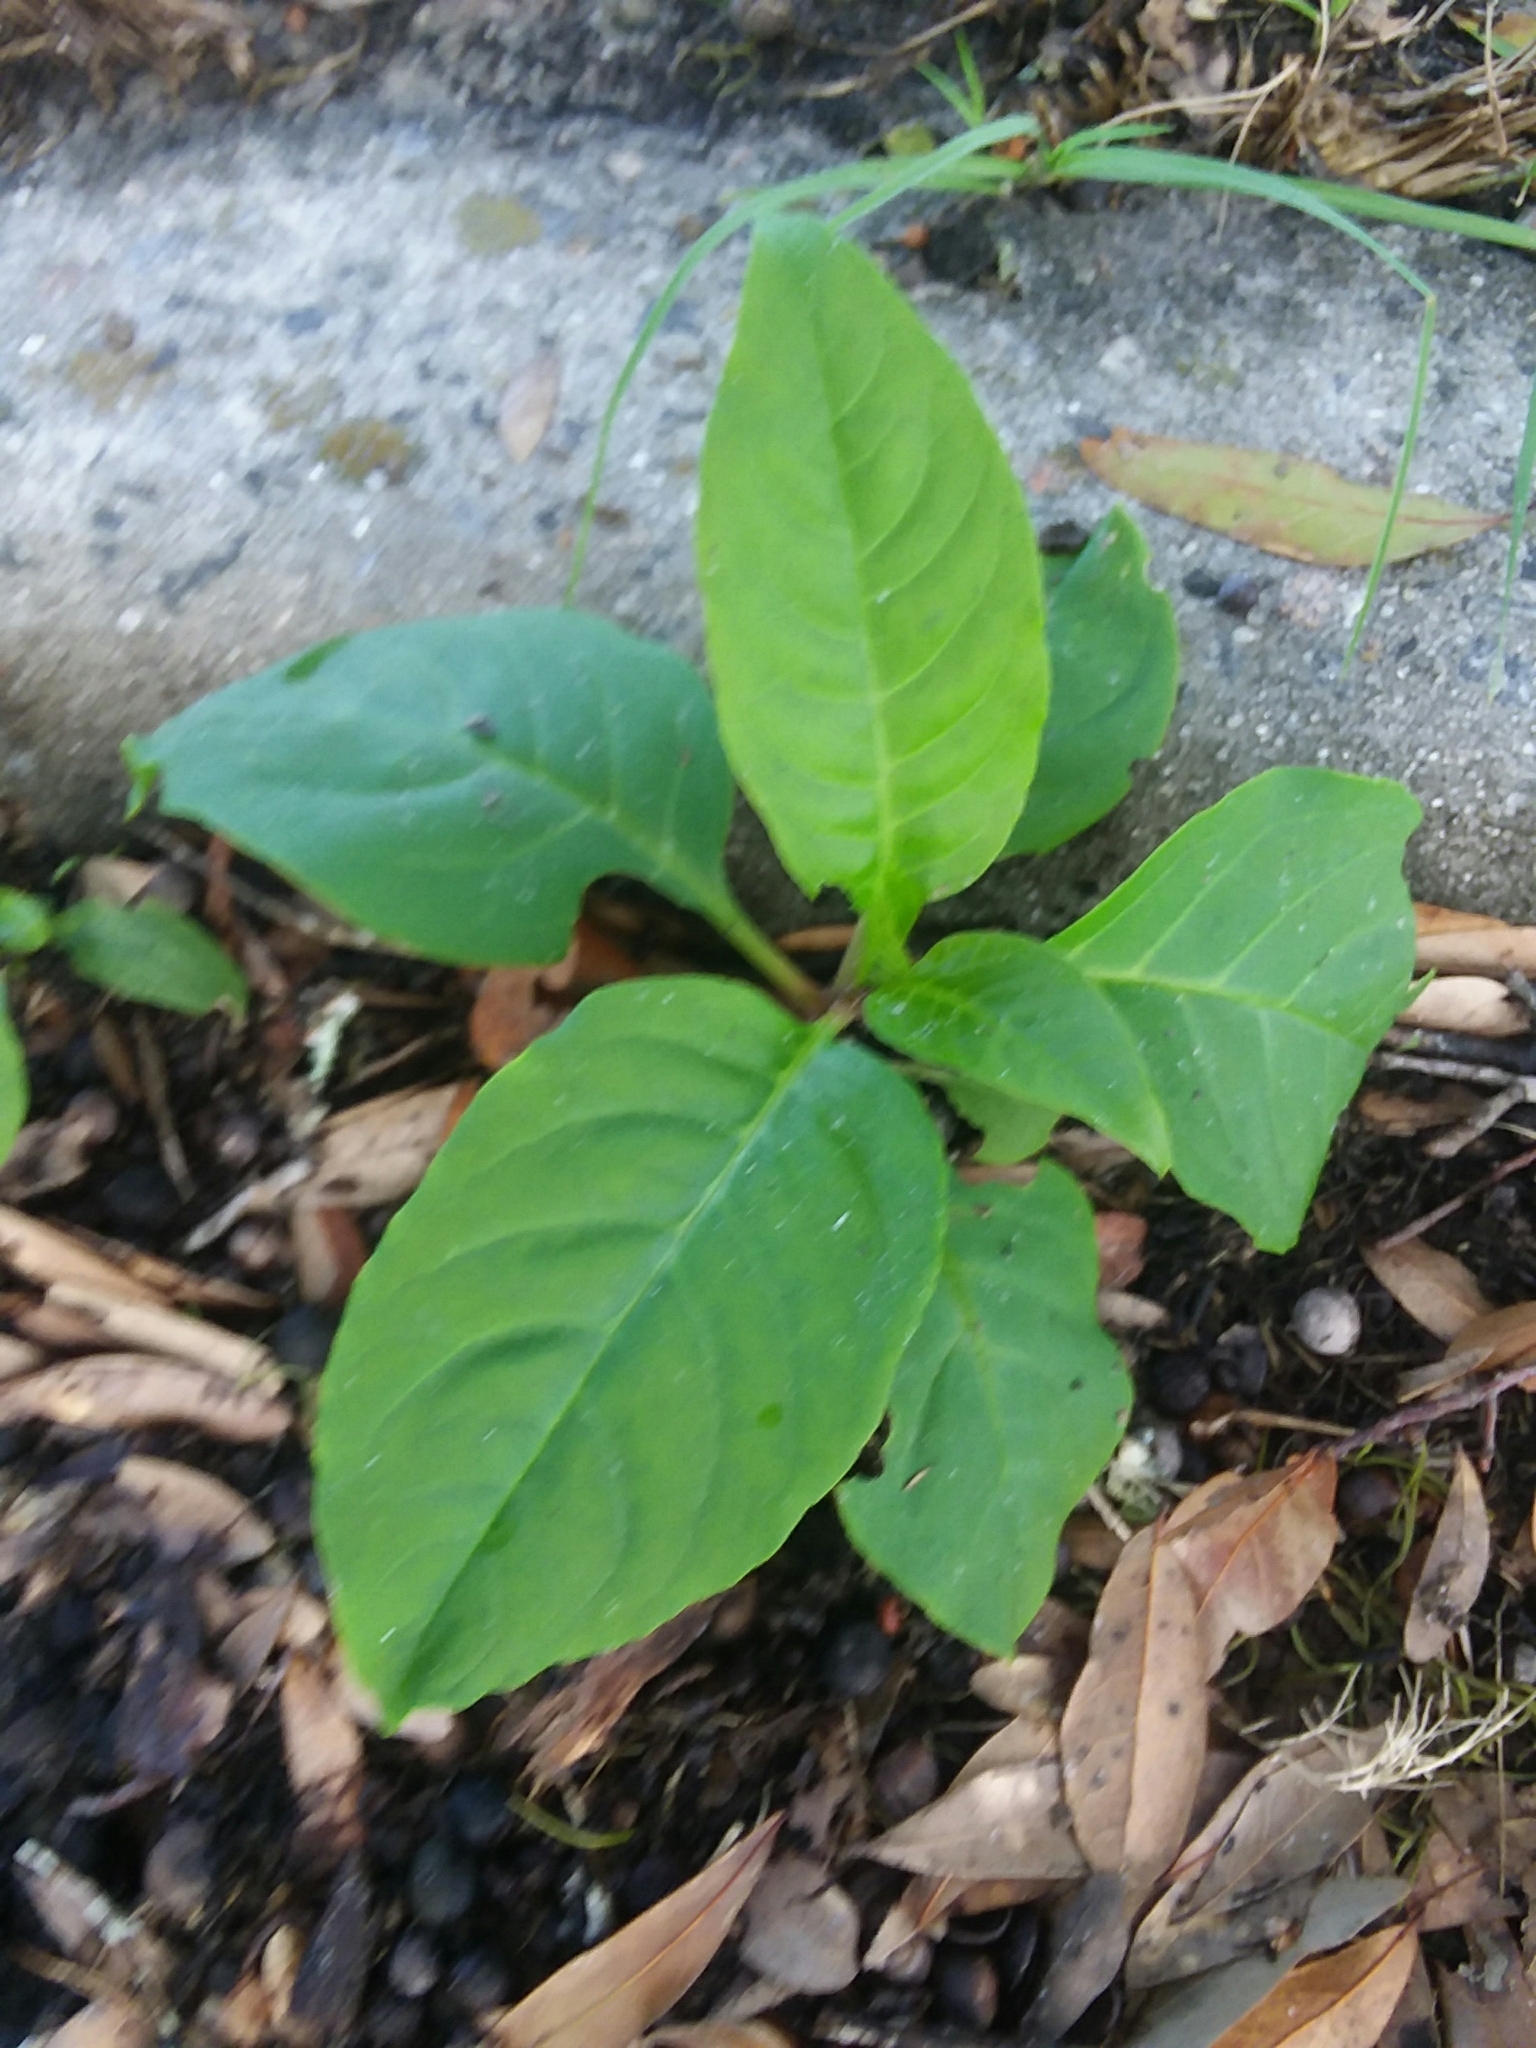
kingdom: Plantae
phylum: Tracheophyta
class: Magnoliopsida
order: Caryophyllales
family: Phytolaccaceae
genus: Phytolacca
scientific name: Phytolacca americana
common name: American pokeweed
